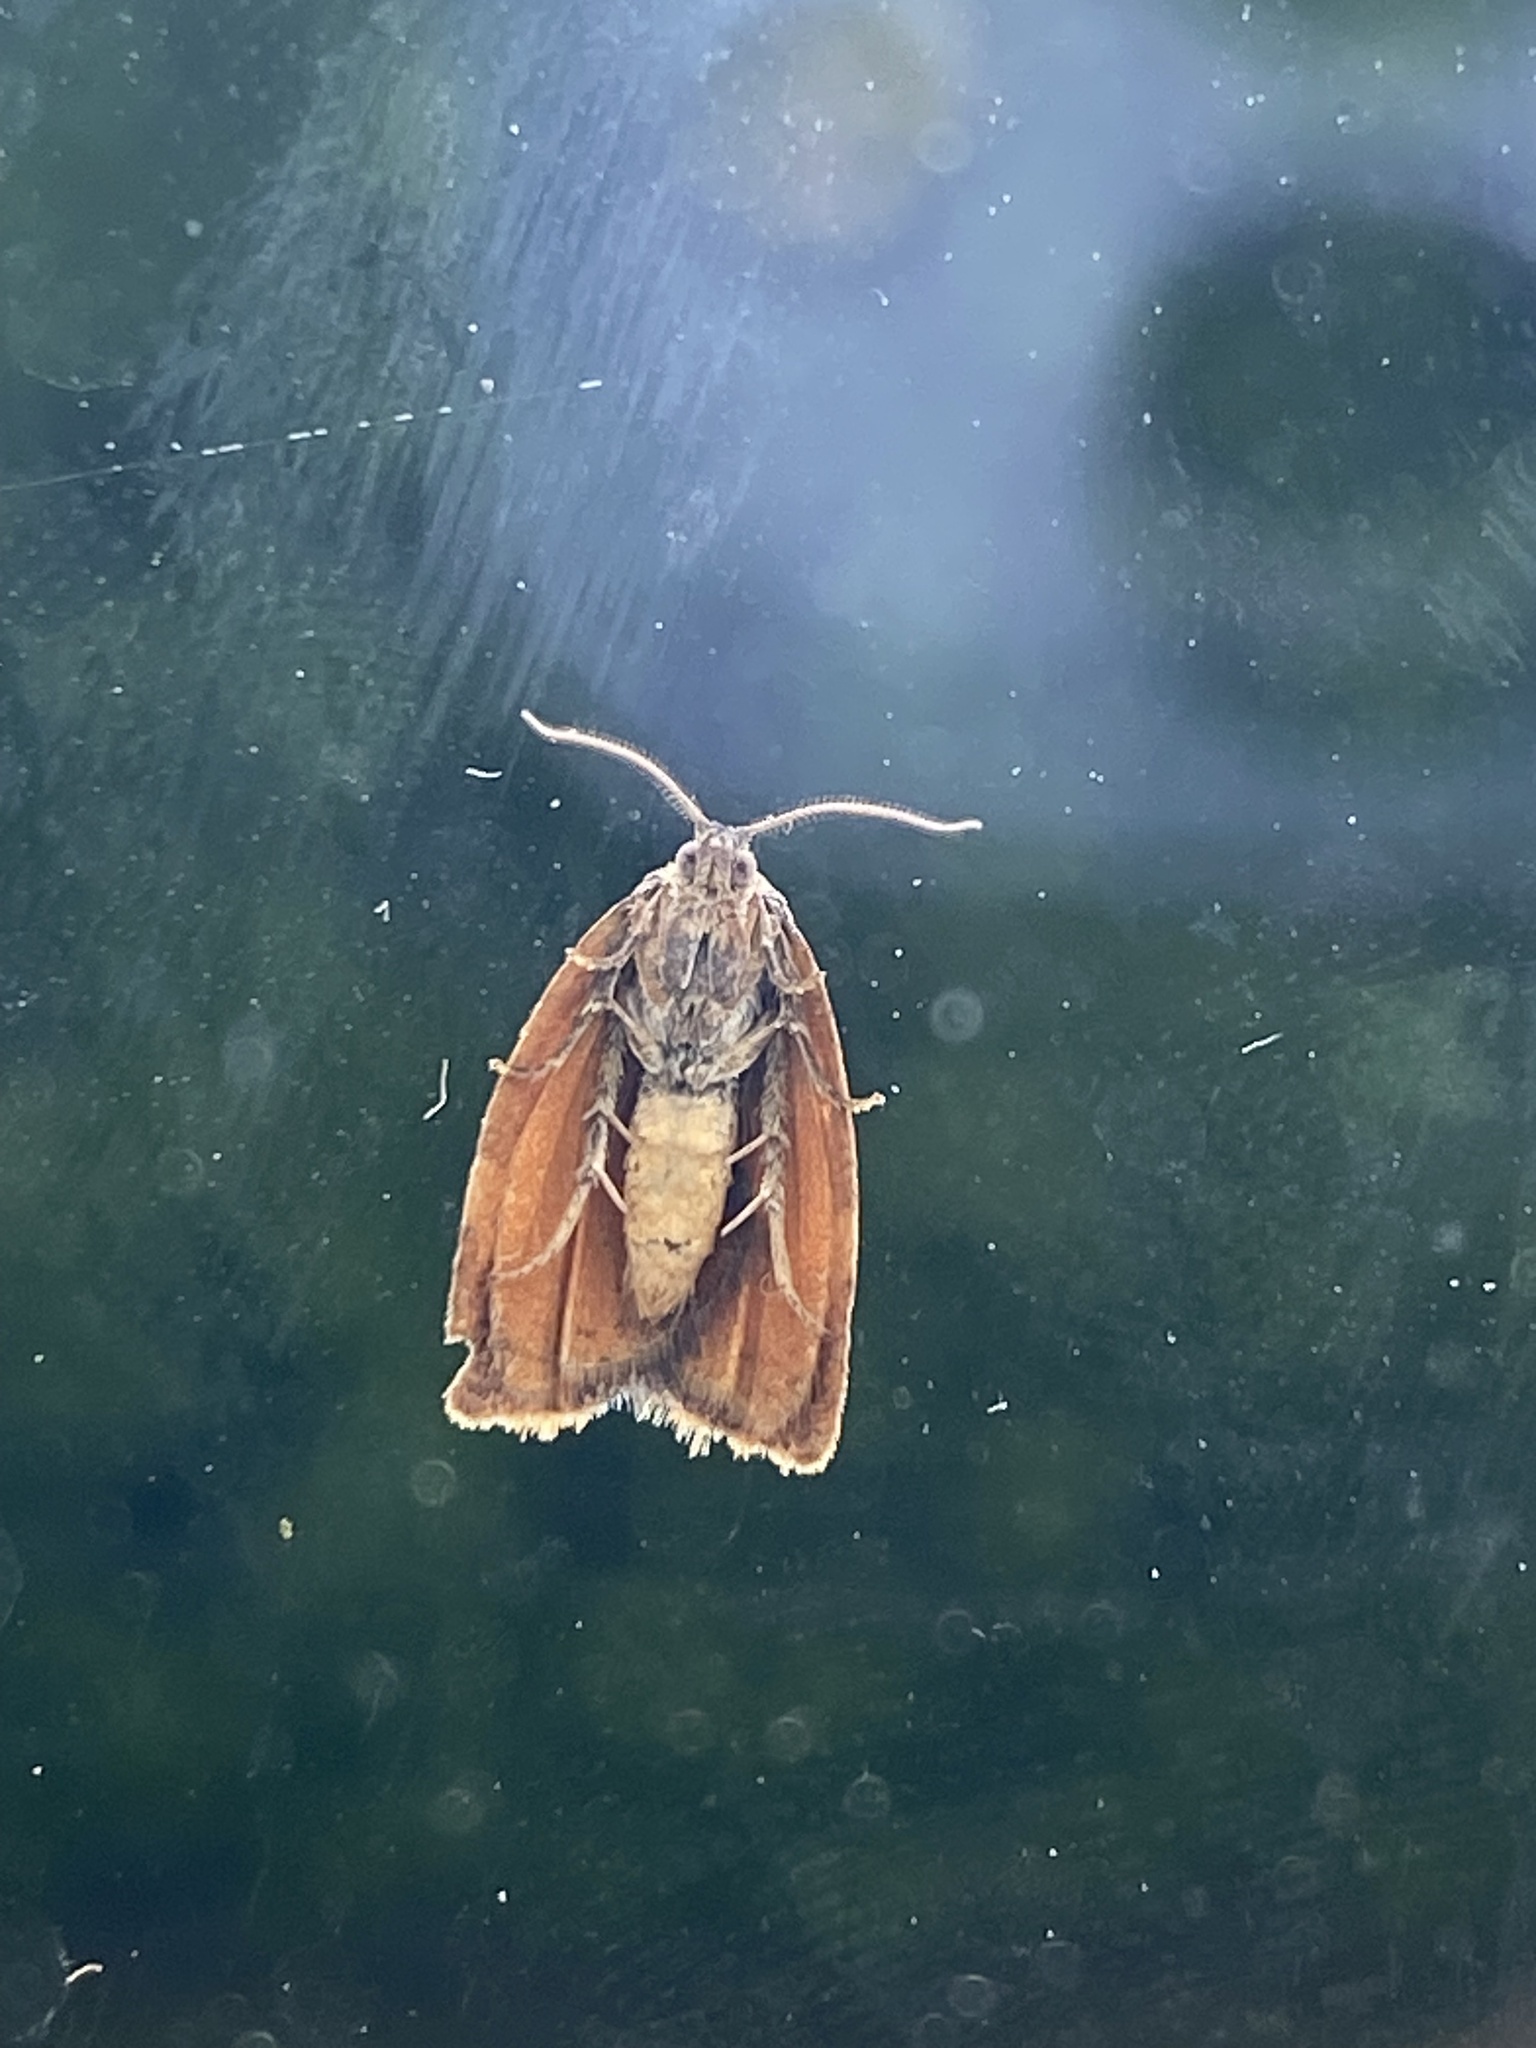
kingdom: Animalia
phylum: Arthropoda
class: Insecta
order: Lepidoptera
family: Tortricidae
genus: Cacoecimorpha
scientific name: Cacoecimorpha pronubana
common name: Carnation tortrix
